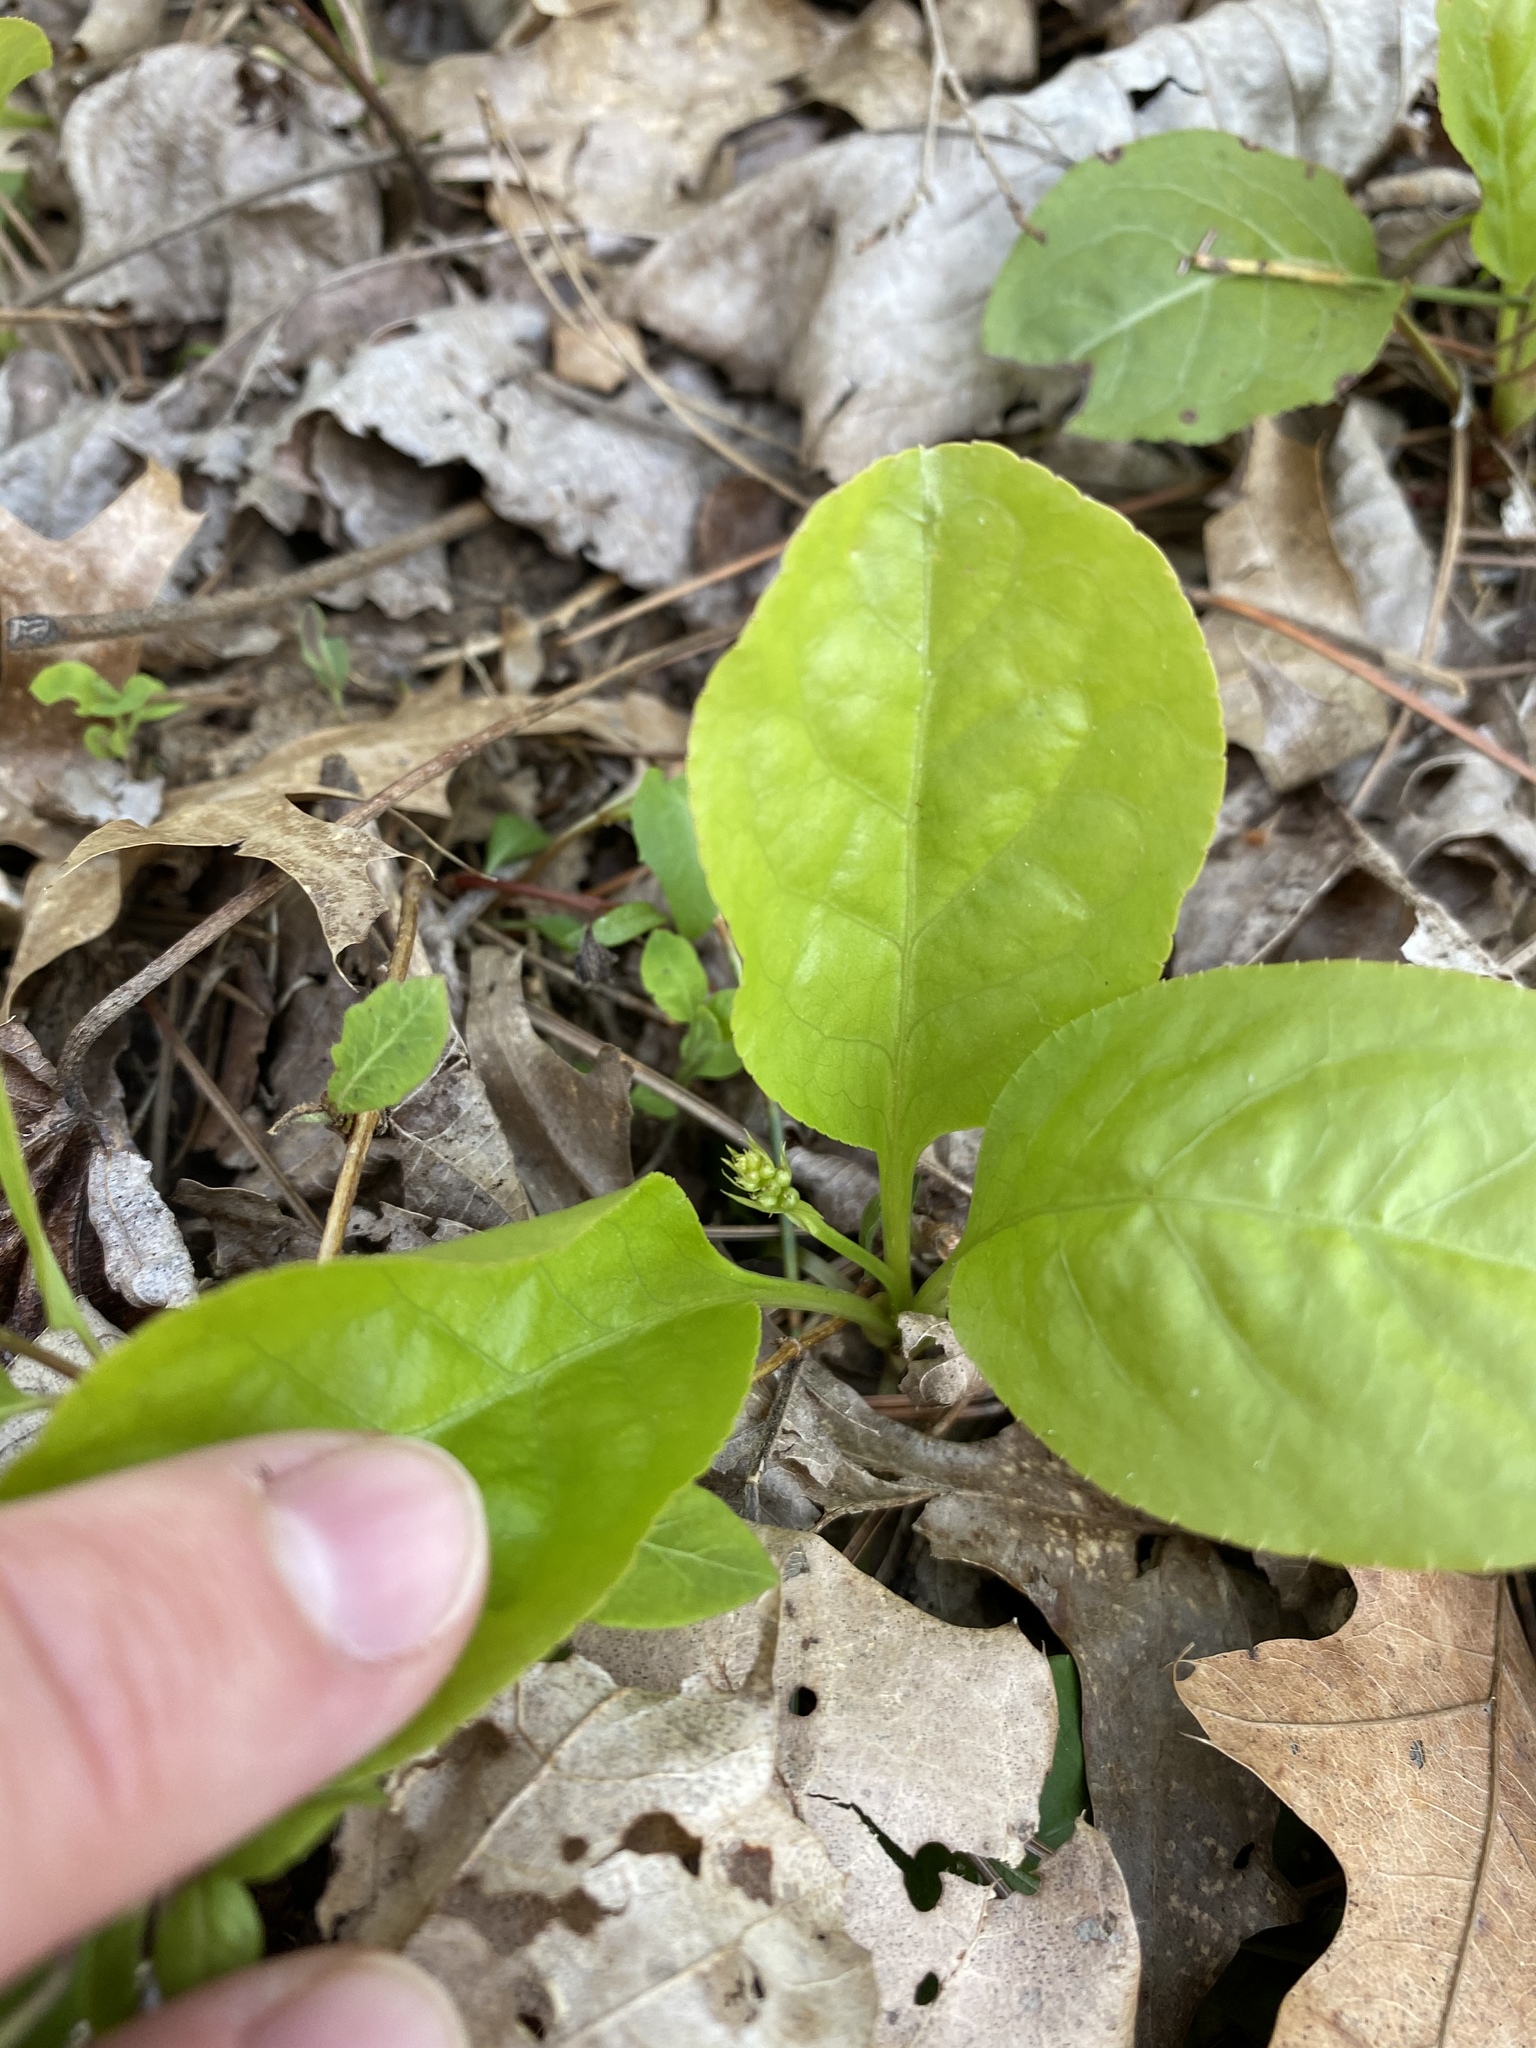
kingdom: Plantae
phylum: Tracheophyta
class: Magnoliopsida
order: Ericales
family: Ericaceae
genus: Pyrola
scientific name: Pyrola elliptica
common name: Shinleaf
